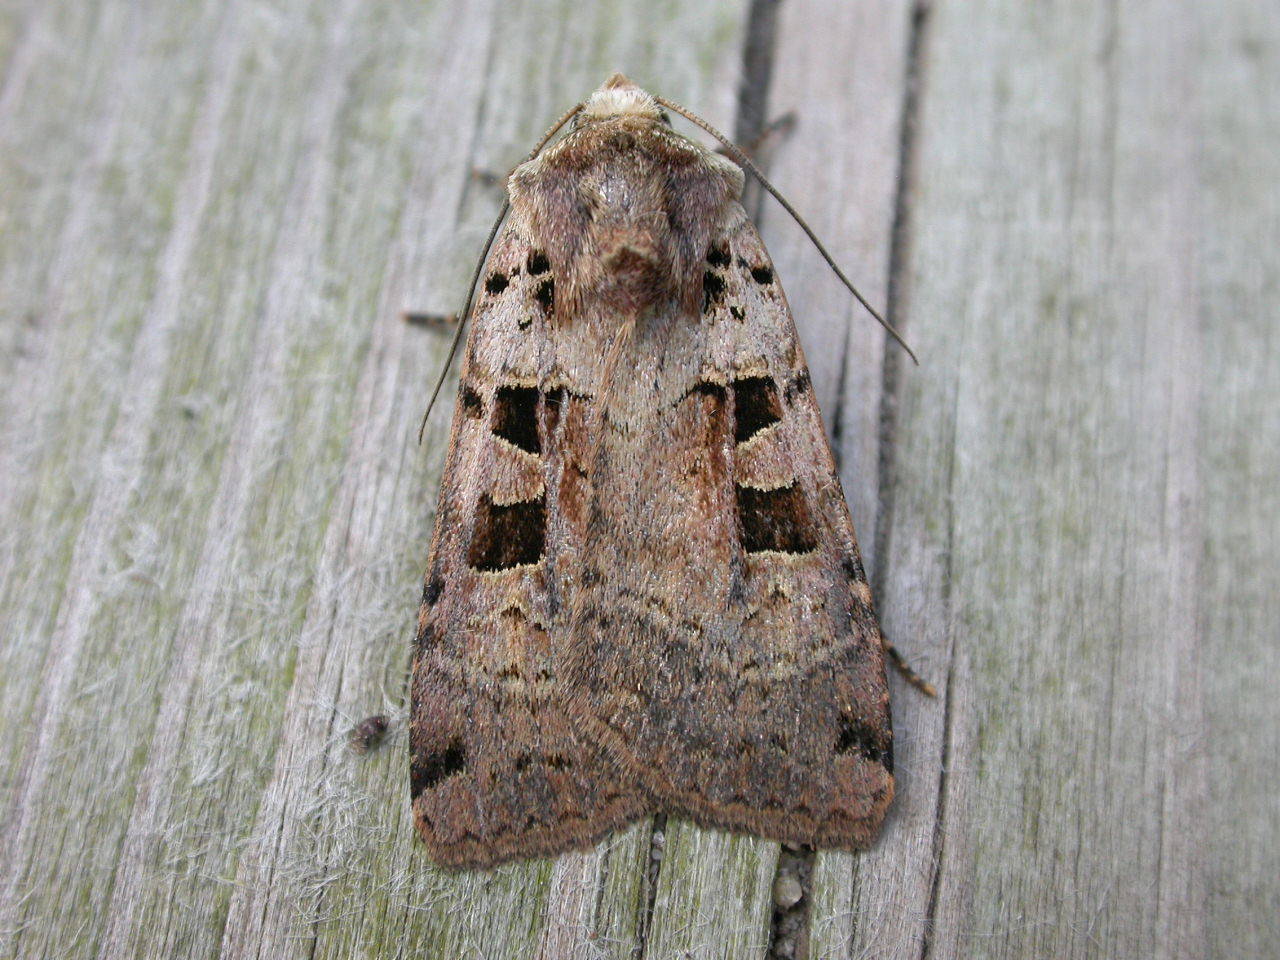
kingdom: Animalia
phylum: Arthropoda
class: Insecta
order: Lepidoptera
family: Noctuidae
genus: Xestia
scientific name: Xestia triangulum
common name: Double square-spot
